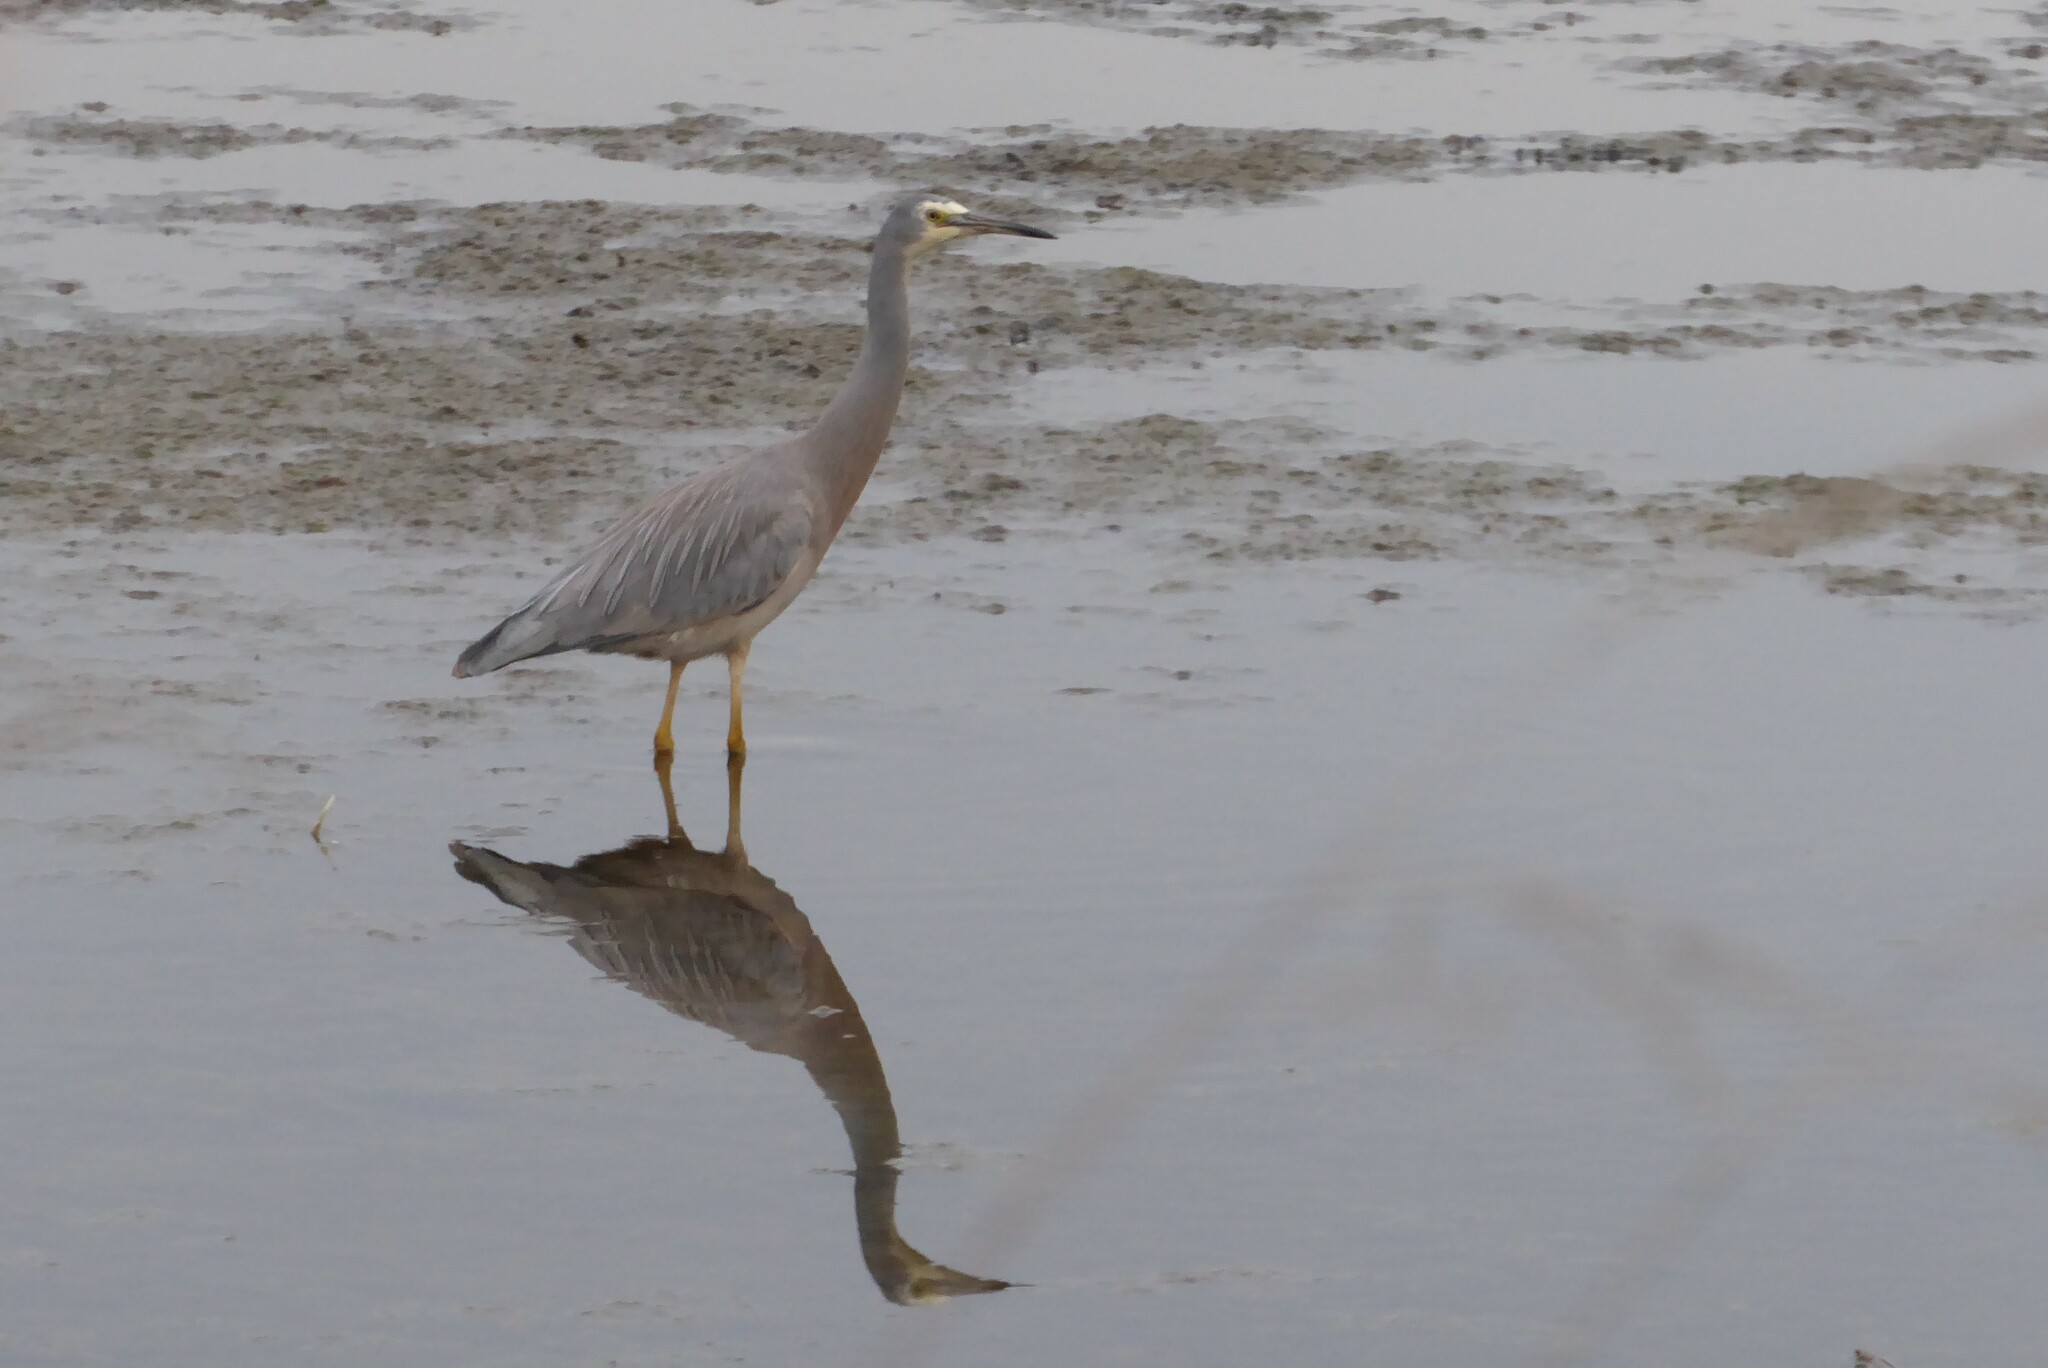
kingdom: Animalia
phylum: Chordata
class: Aves
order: Pelecaniformes
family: Ardeidae
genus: Egretta
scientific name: Egretta novaehollandiae
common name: White-faced heron
